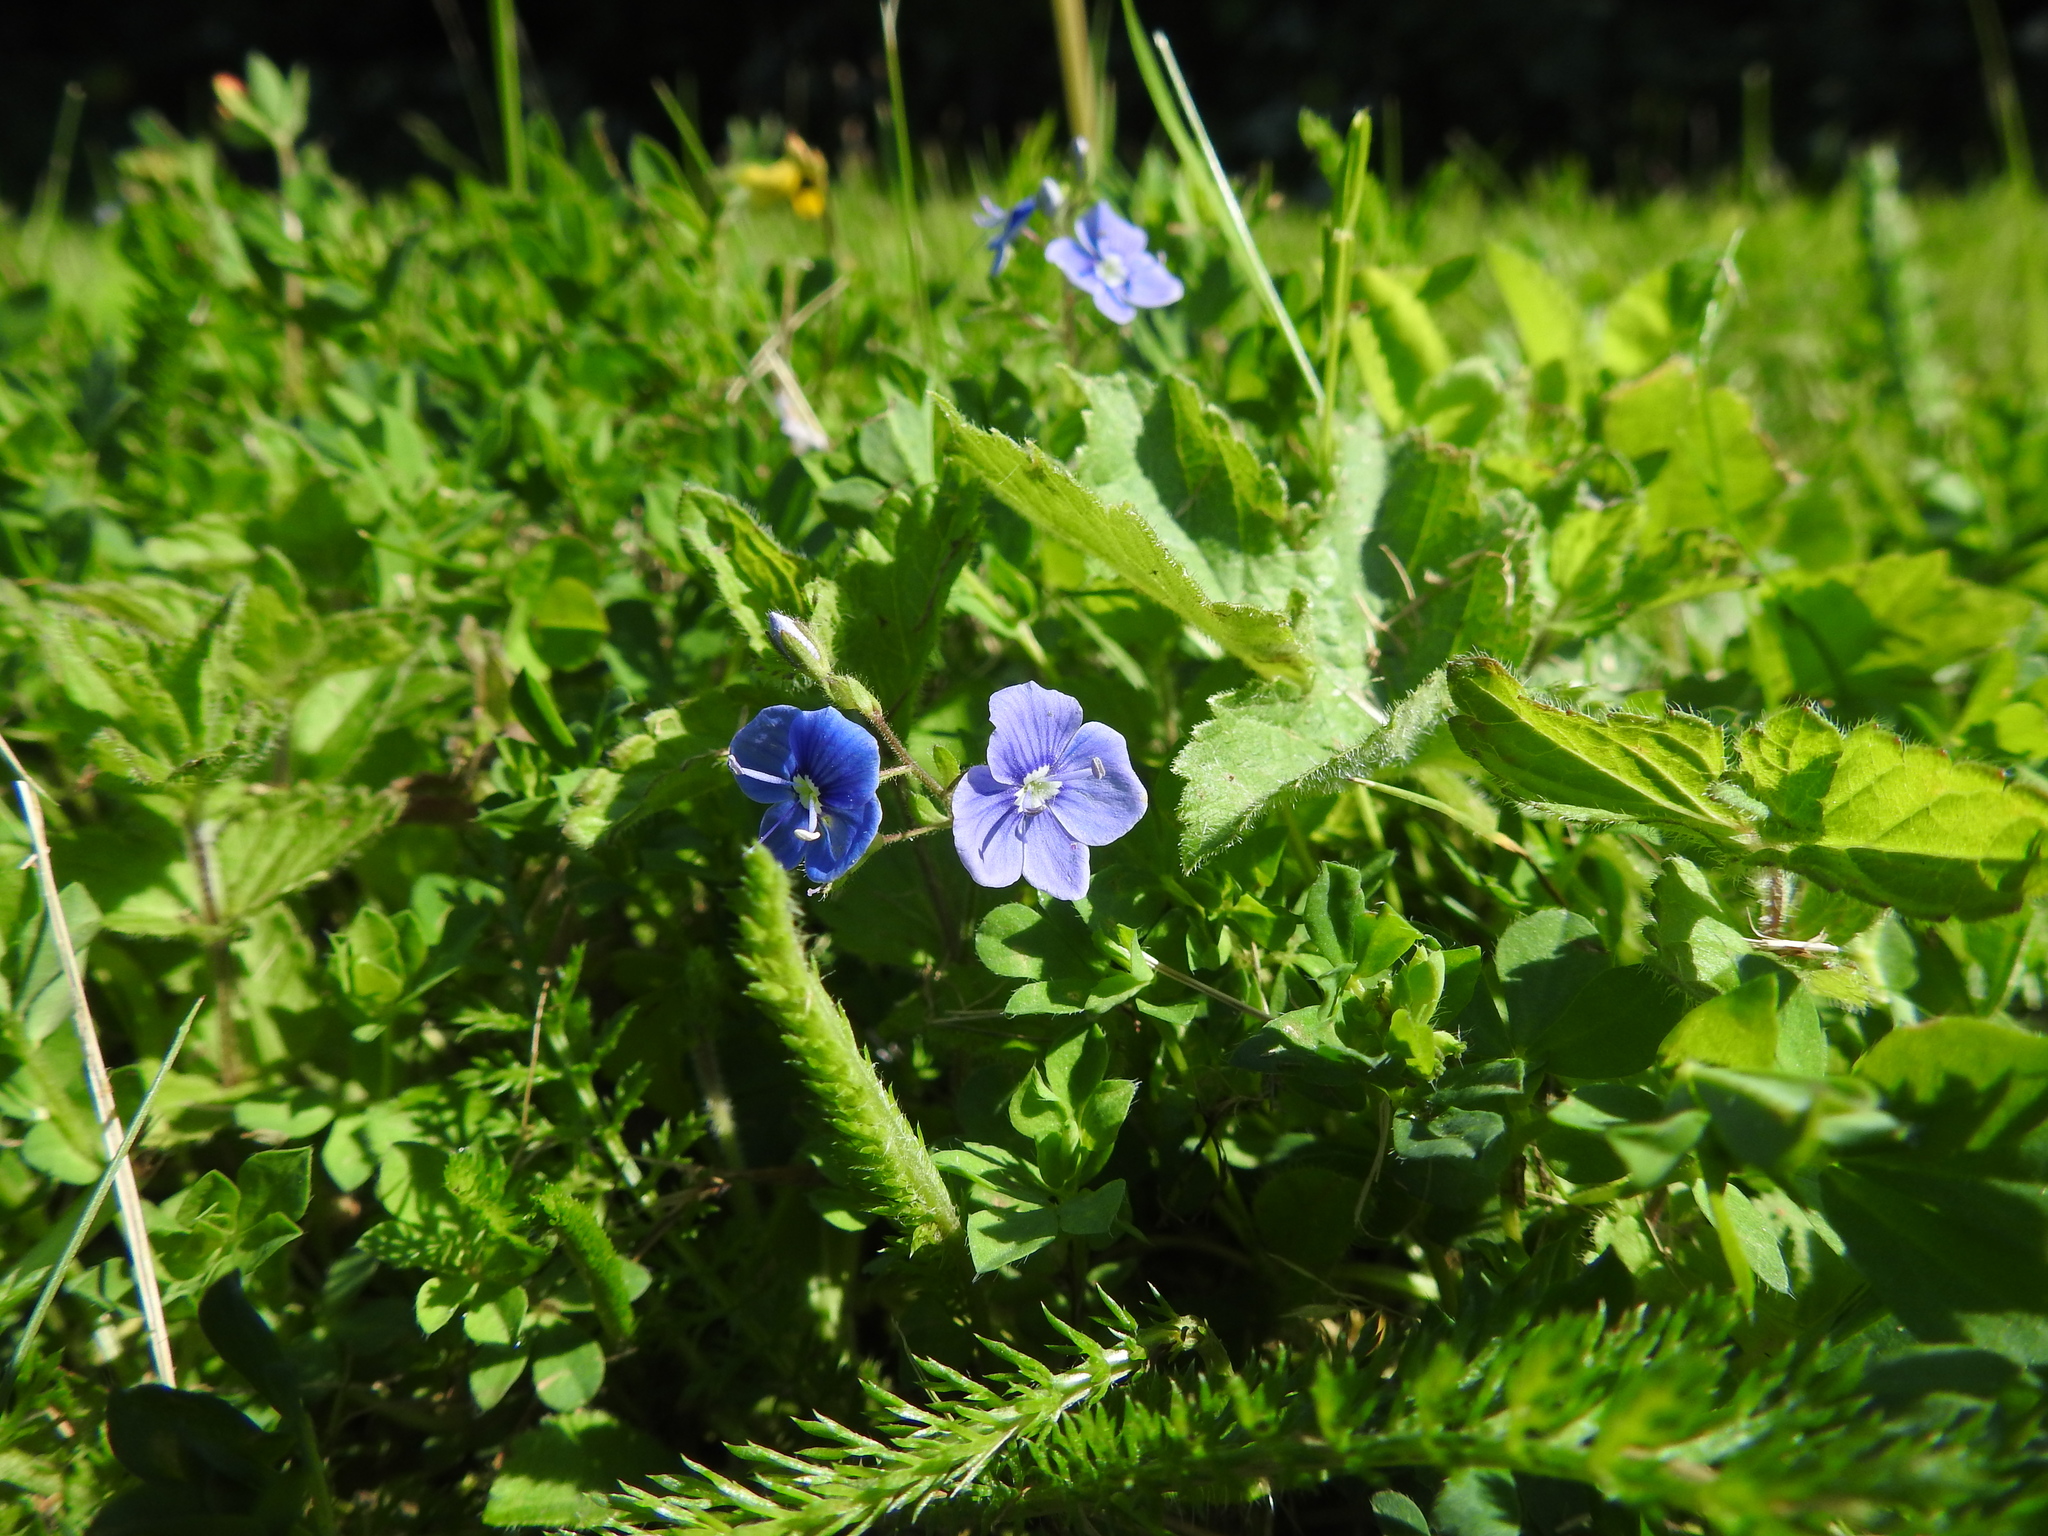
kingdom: Plantae
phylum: Tracheophyta
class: Magnoliopsida
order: Lamiales
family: Plantaginaceae
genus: Veronica
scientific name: Veronica chamaedrys
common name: Germander speedwell
